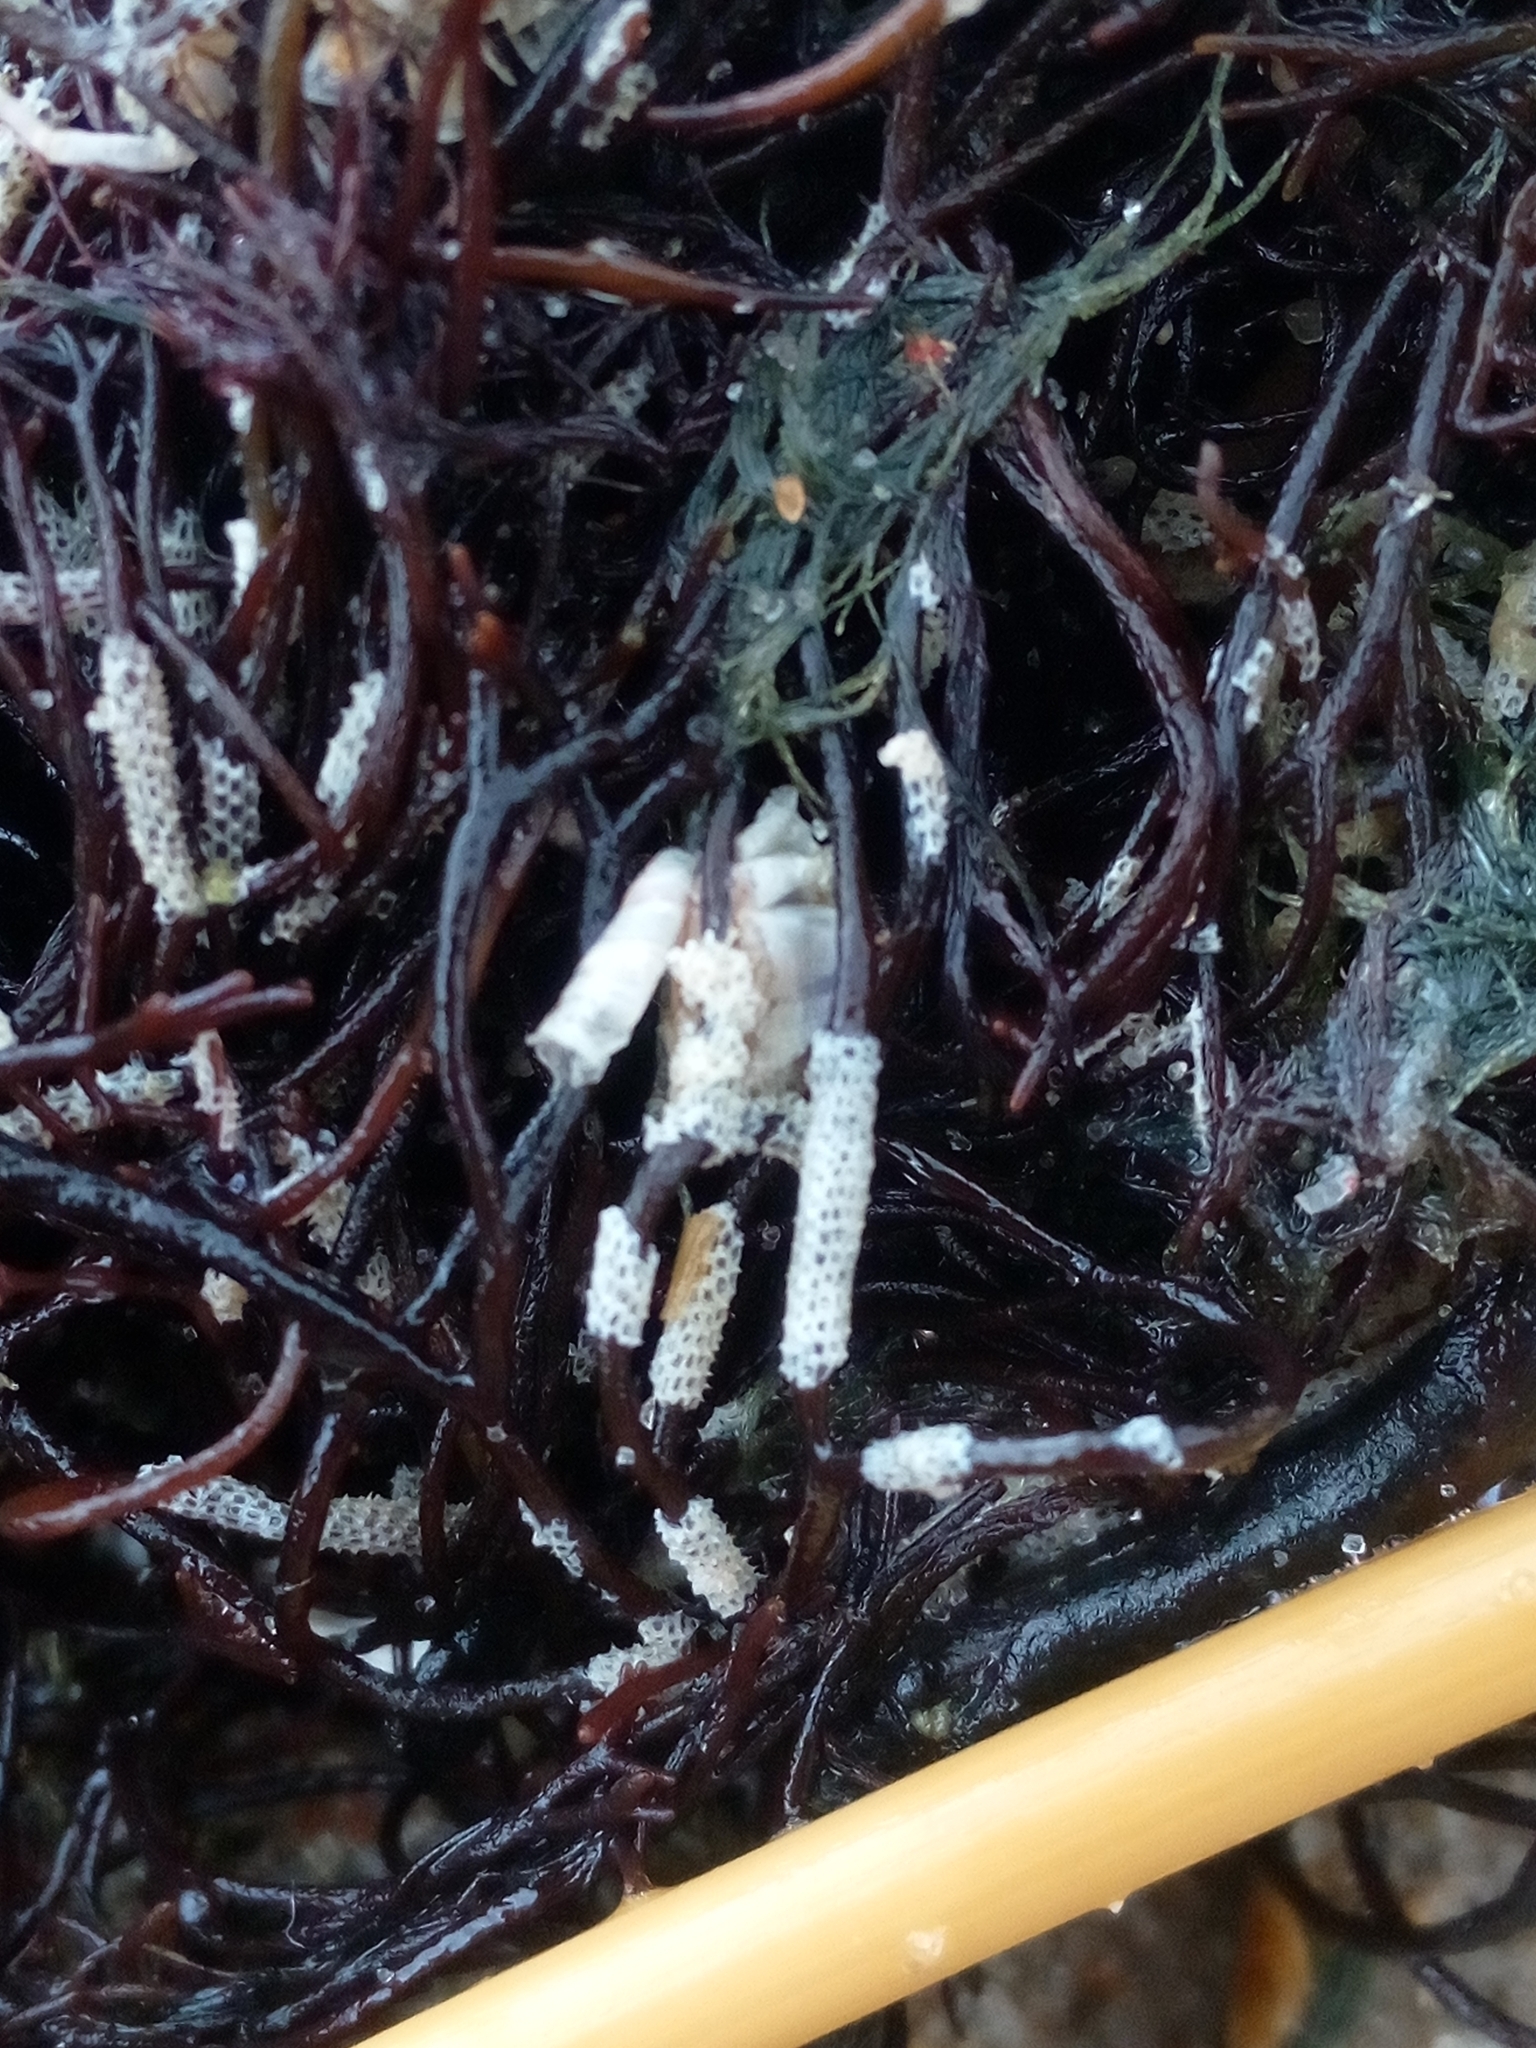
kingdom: Animalia
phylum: Bryozoa
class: Gymnolaemata
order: Cheilostomatida
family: Electridae
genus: Electra
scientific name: Electra pilosa
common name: Hairy sea-mat
